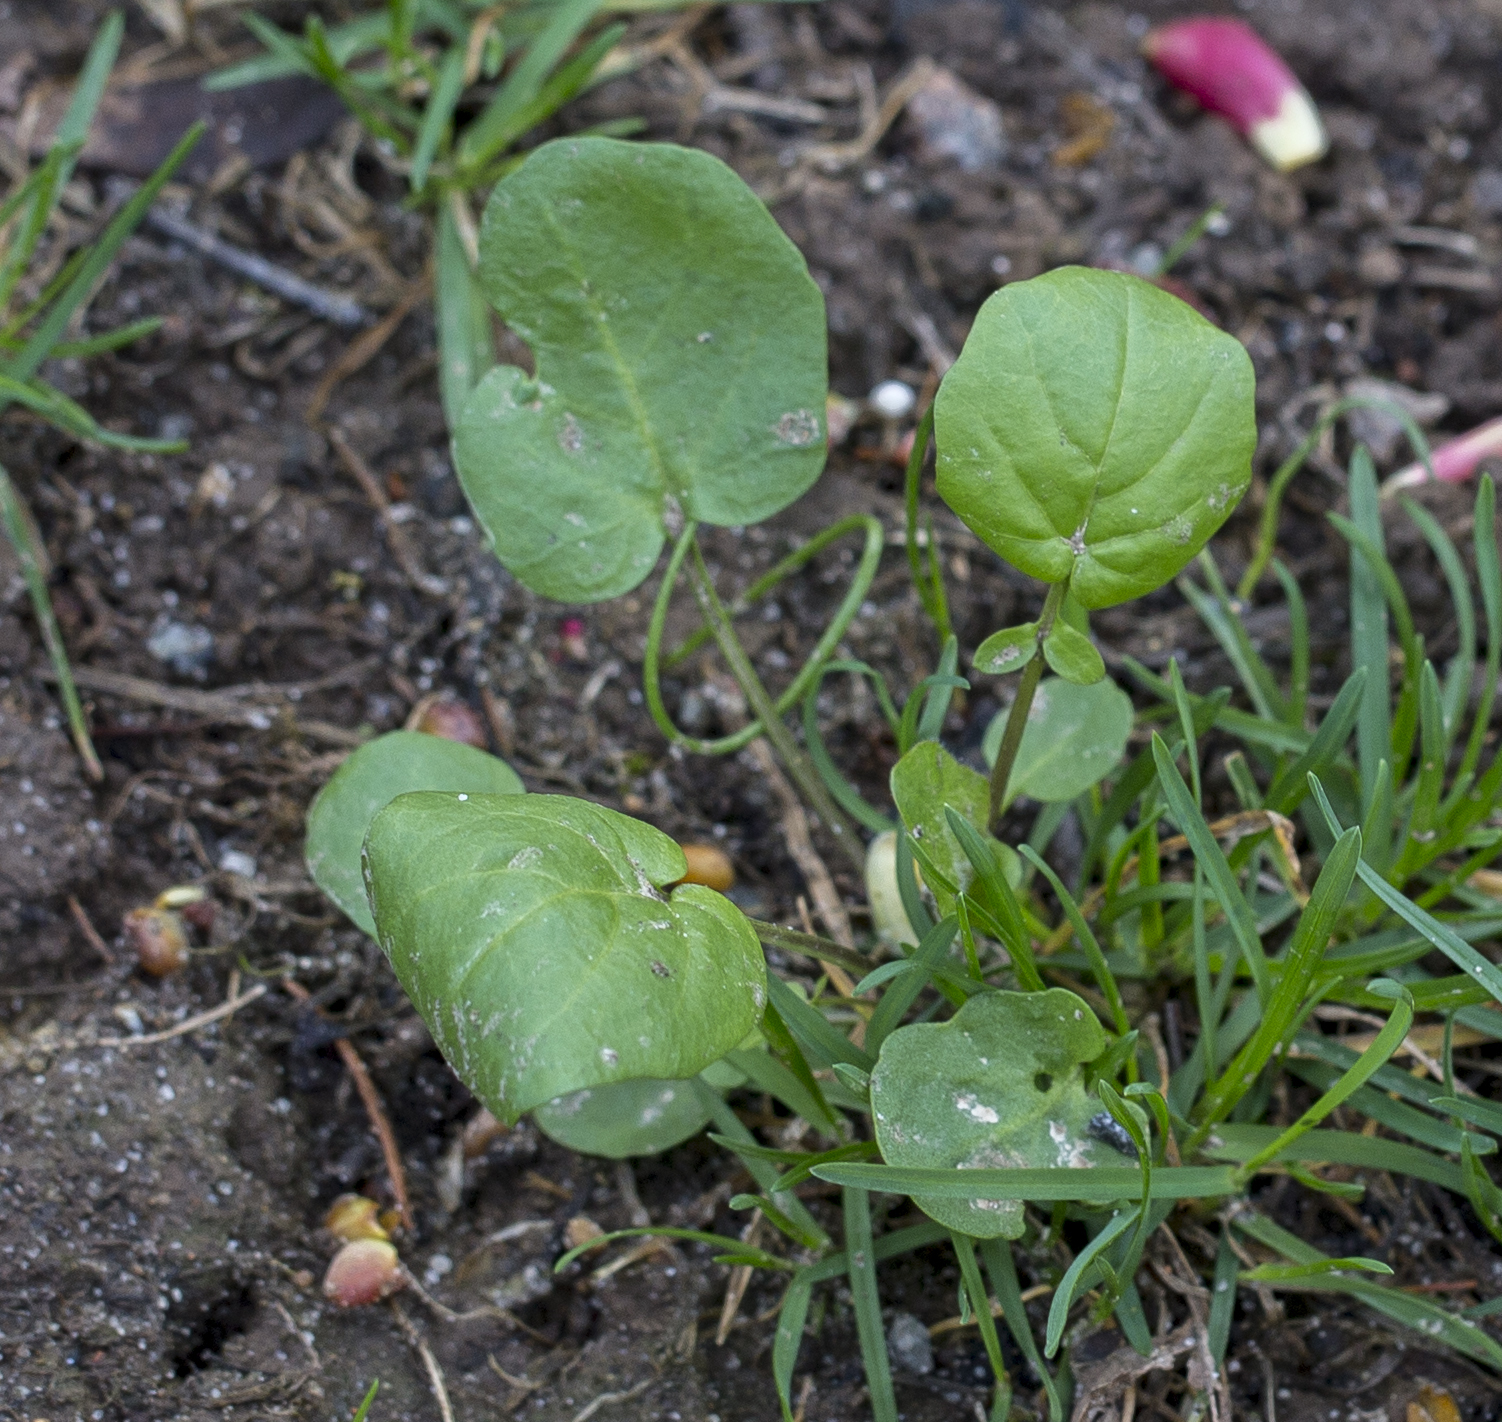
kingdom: Plantae
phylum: Tracheophyta
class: Magnoliopsida
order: Brassicales
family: Brassicaceae
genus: Barbarea
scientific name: Barbarea vulgaris
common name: Cressy-greens
